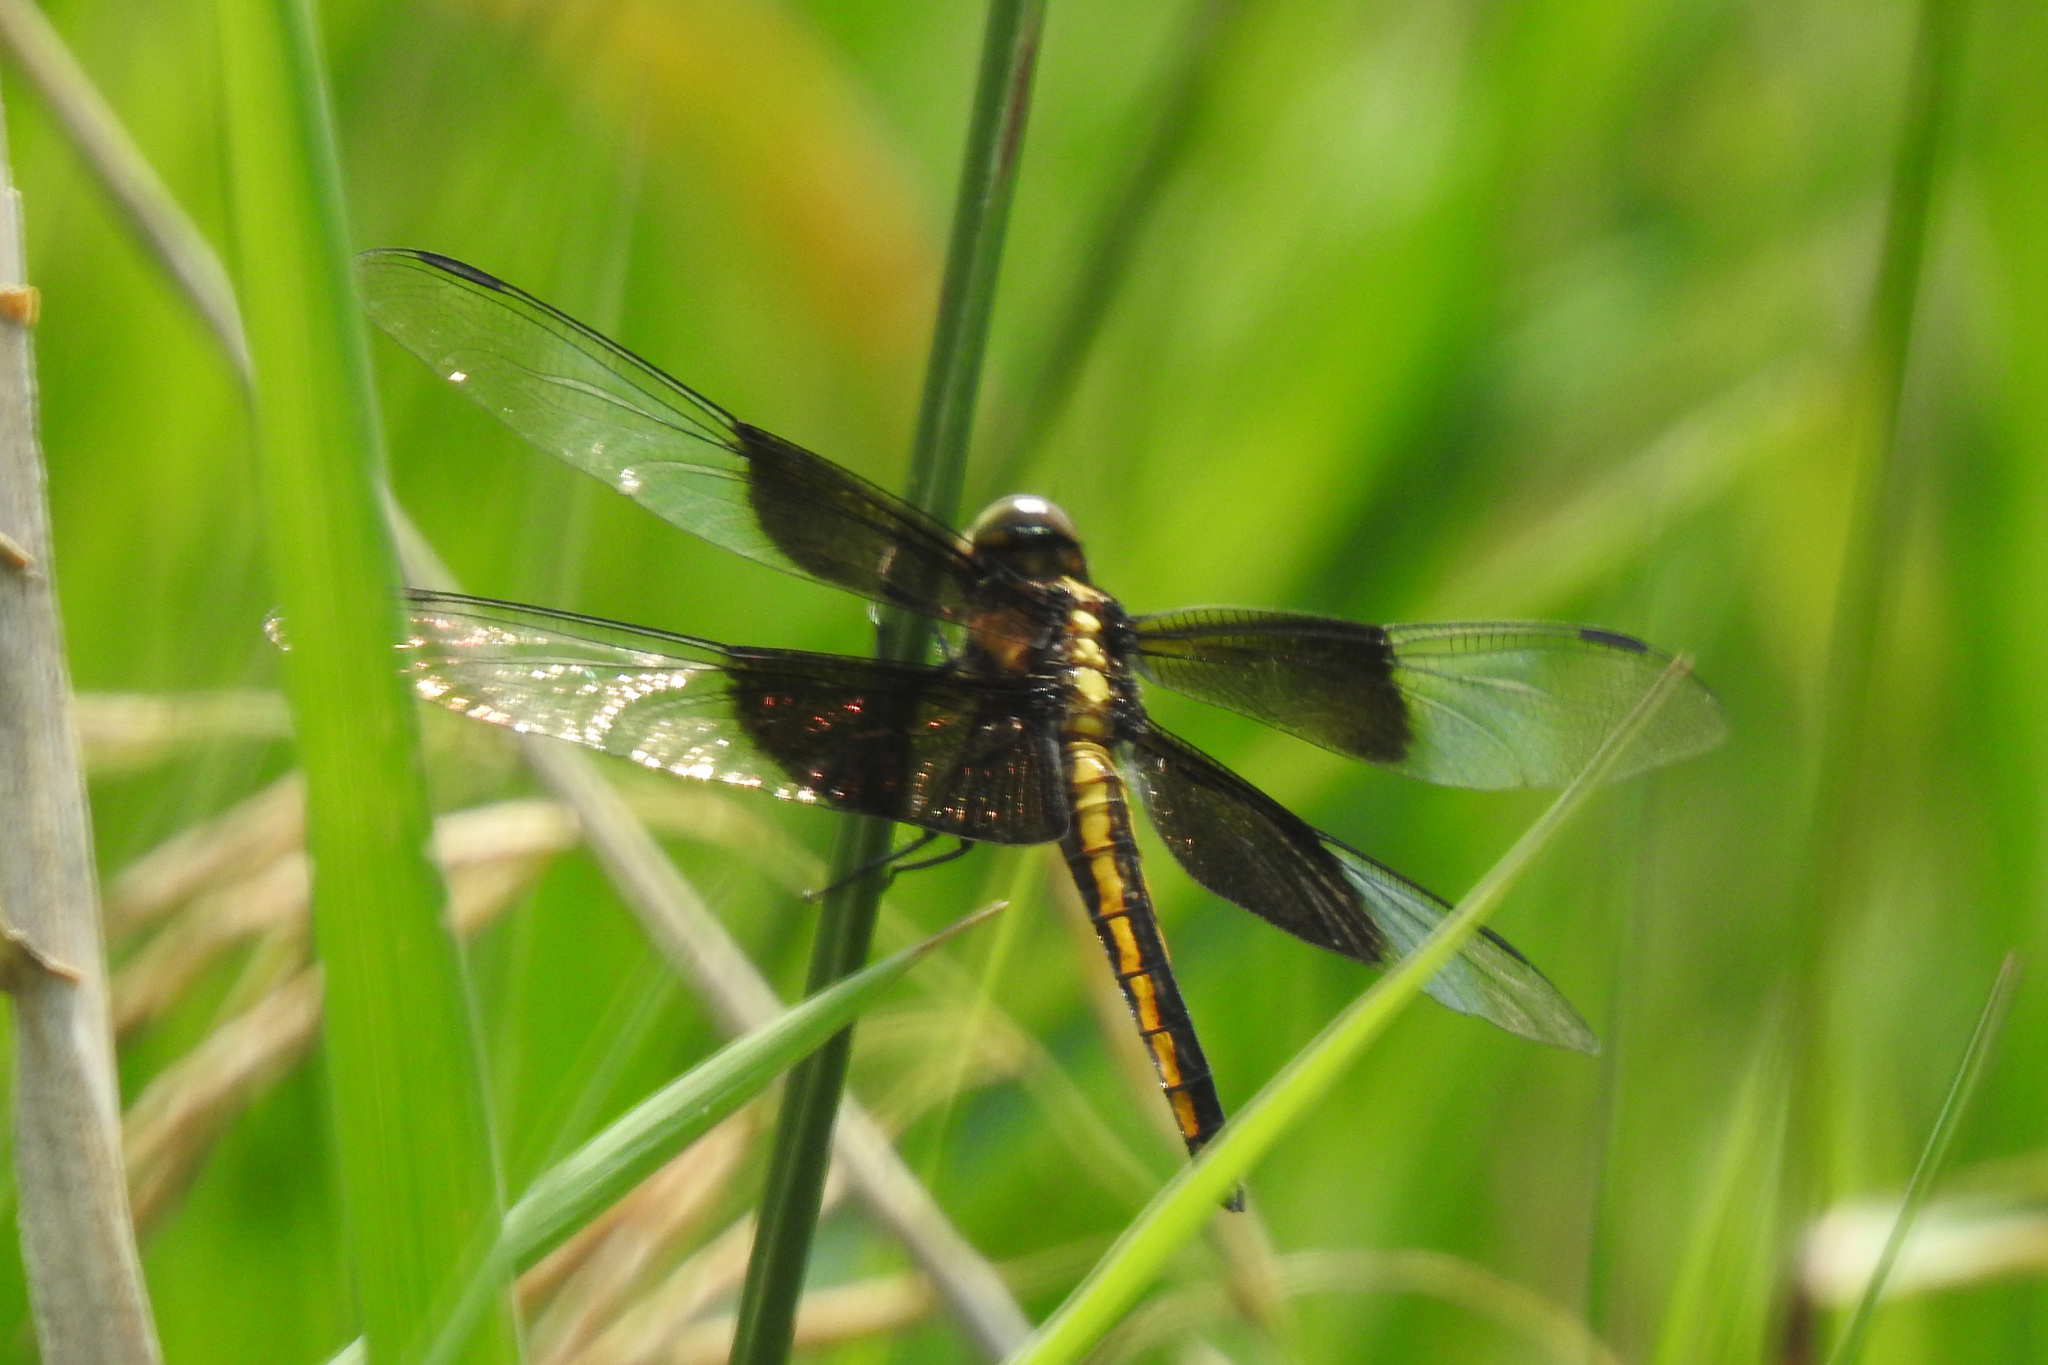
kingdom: Animalia
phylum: Arthropoda
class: Insecta
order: Odonata
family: Libellulidae
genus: Libellula
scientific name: Libellula luctuosa
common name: Widow skimmer
